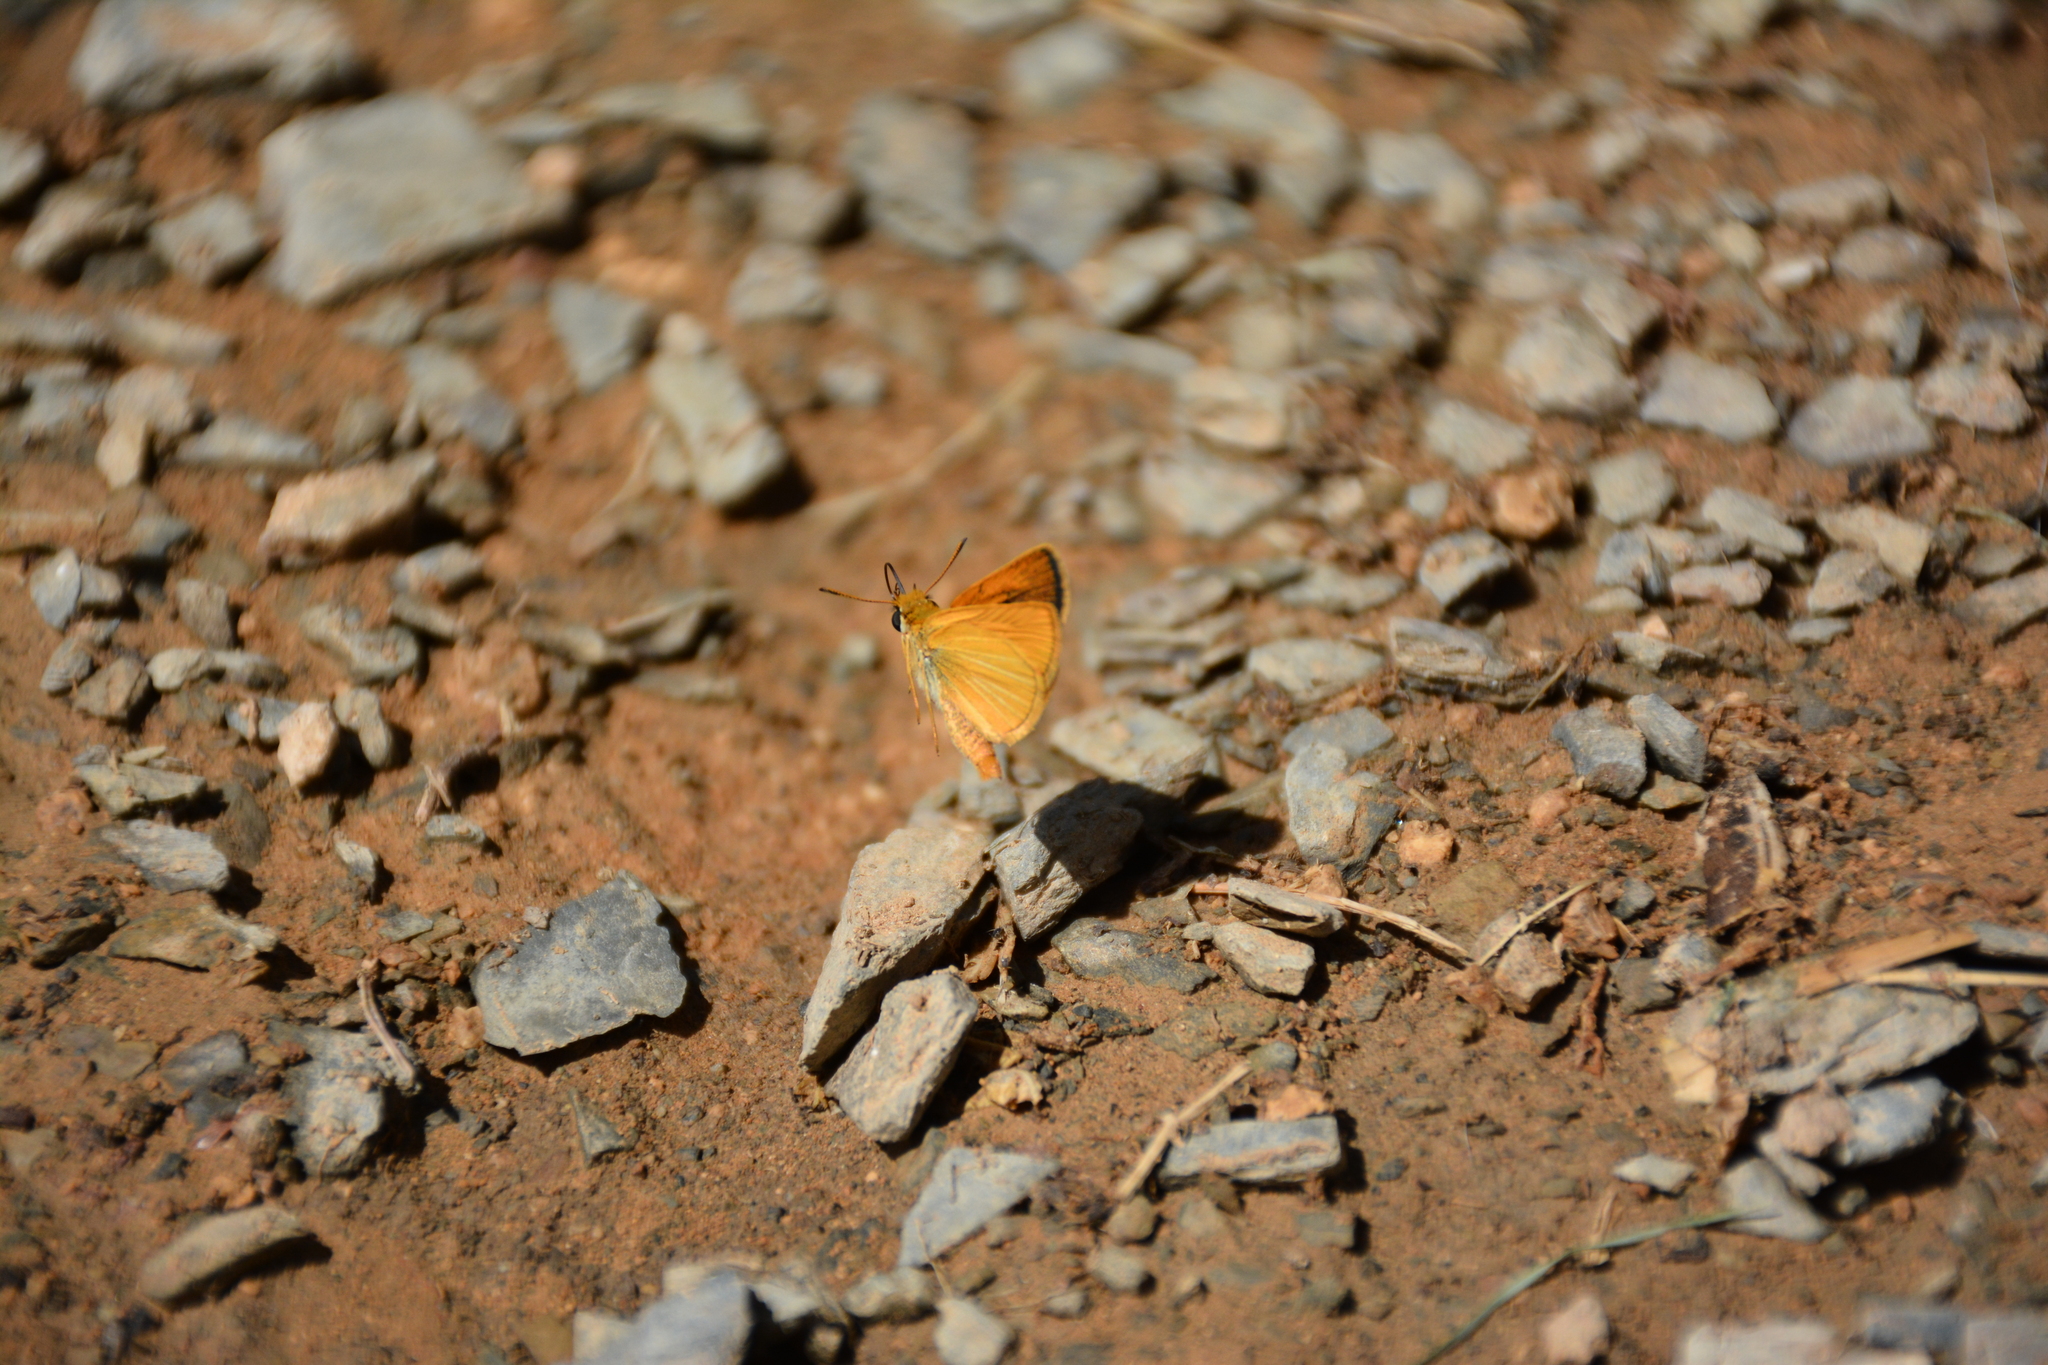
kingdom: Animalia
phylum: Arthropoda
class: Insecta
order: Lepidoptera
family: Hesperiidae
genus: Thymelicus
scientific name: Thymelicus acteon
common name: Lulworth skipper
